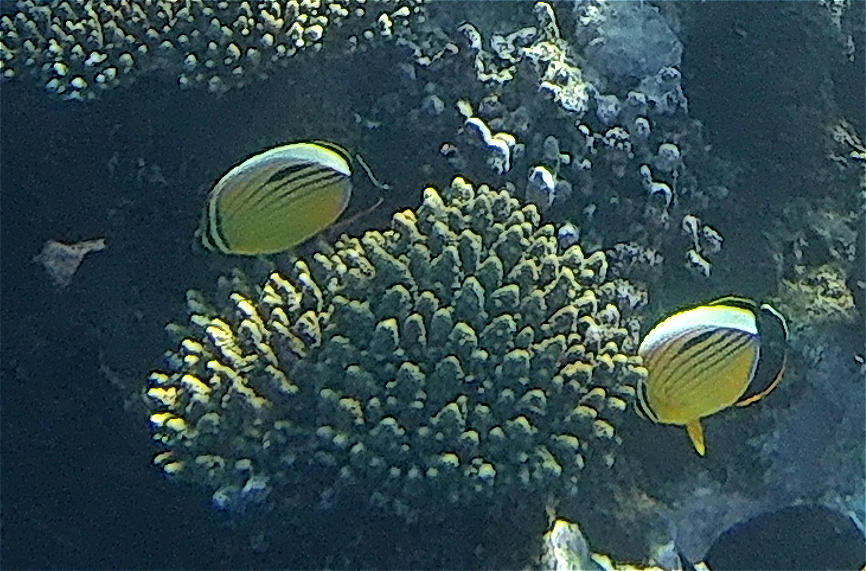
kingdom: Animalia
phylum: Chordata
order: Perciformes
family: Chaetodontidae
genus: Chaetodon
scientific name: Chaetodon austriacus
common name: Exquisite butterflyfish
